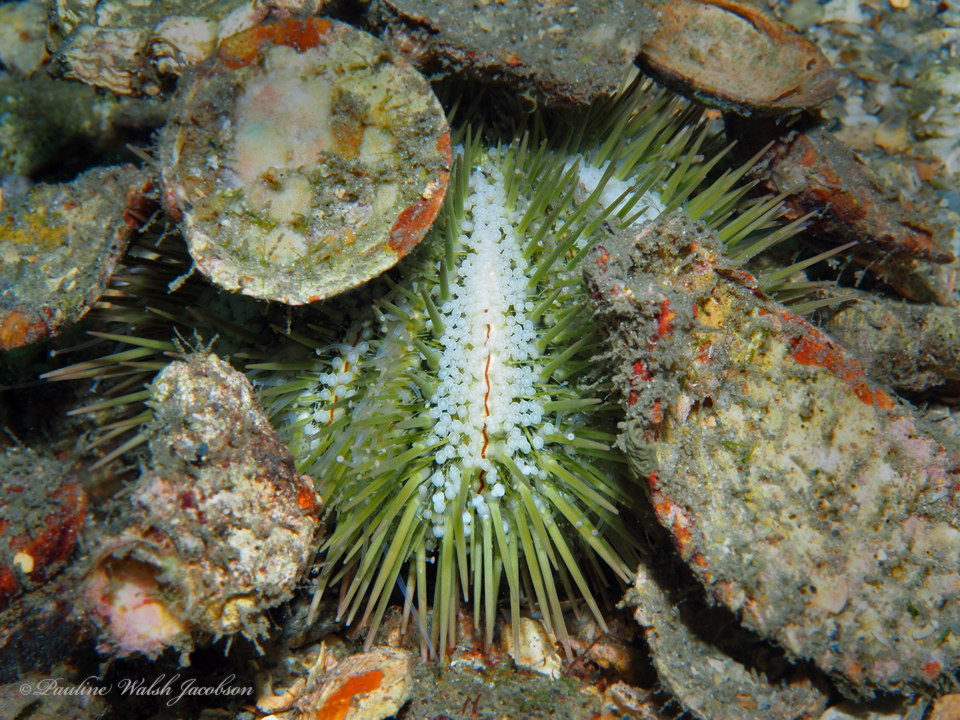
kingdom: Animalia
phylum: Echinodermata
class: Echinoidea
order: Camarodonta
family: Toxopneustidae
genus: Lytechinus
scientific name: Lytechinus variegatus
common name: Variegated urchin
